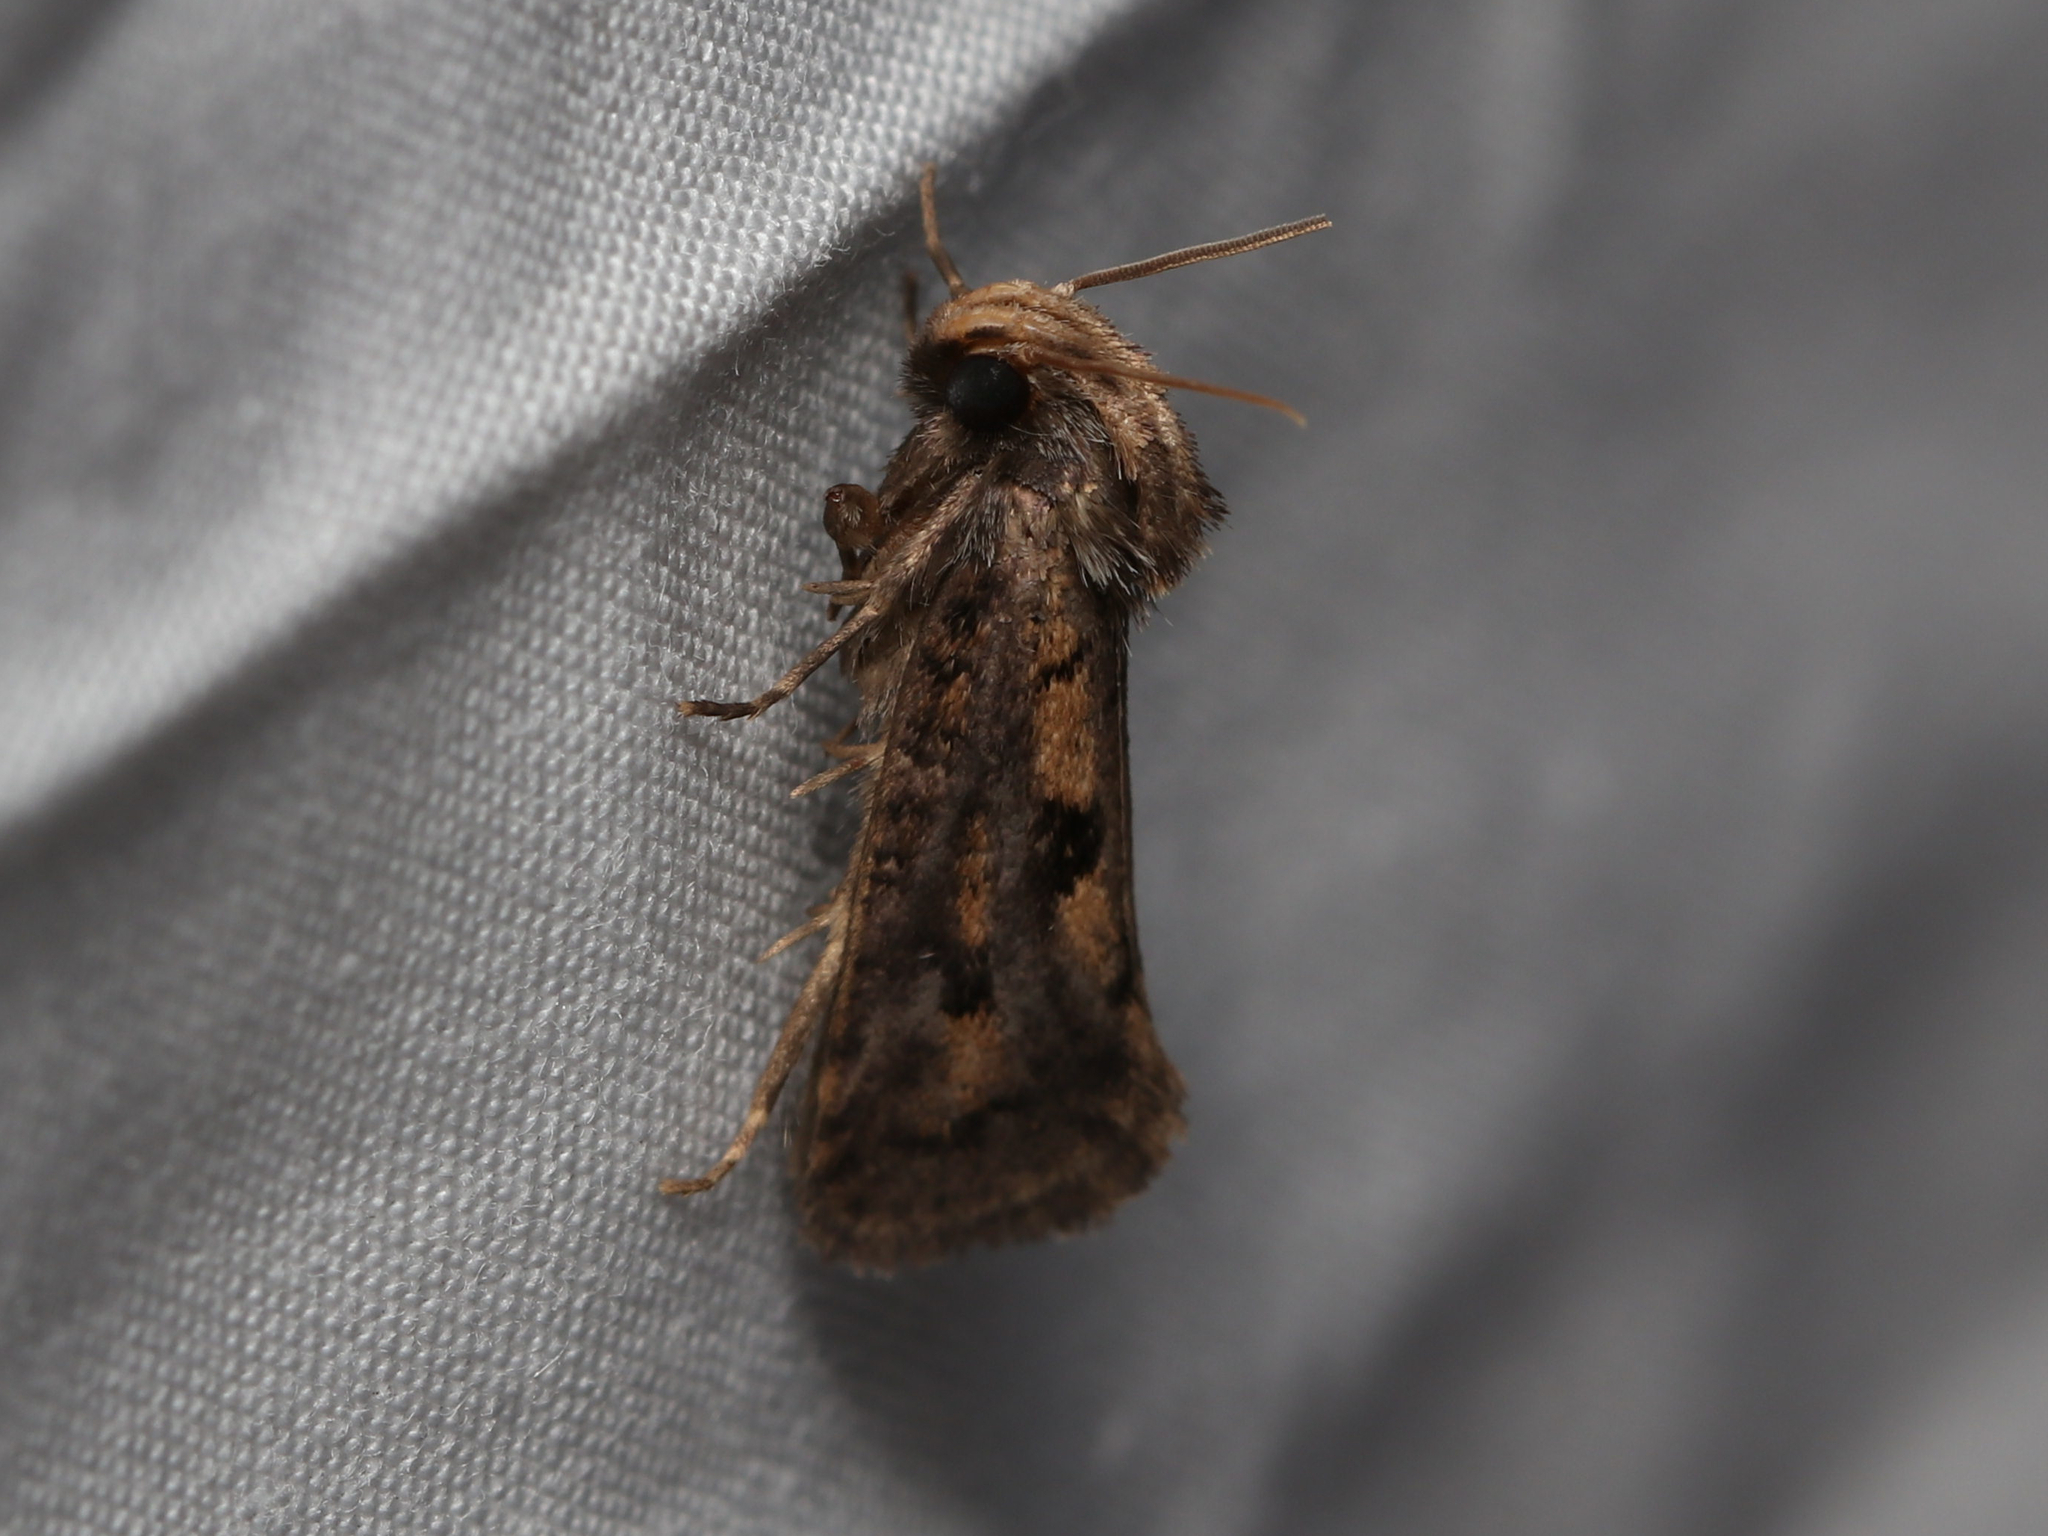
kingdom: Animalia
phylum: Arthropoda
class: Insecta
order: Lepidoptera
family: Tineidae
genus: Acrolophus
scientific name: Acrolophus popeanella
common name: Clemens' grass tubeworm moth
